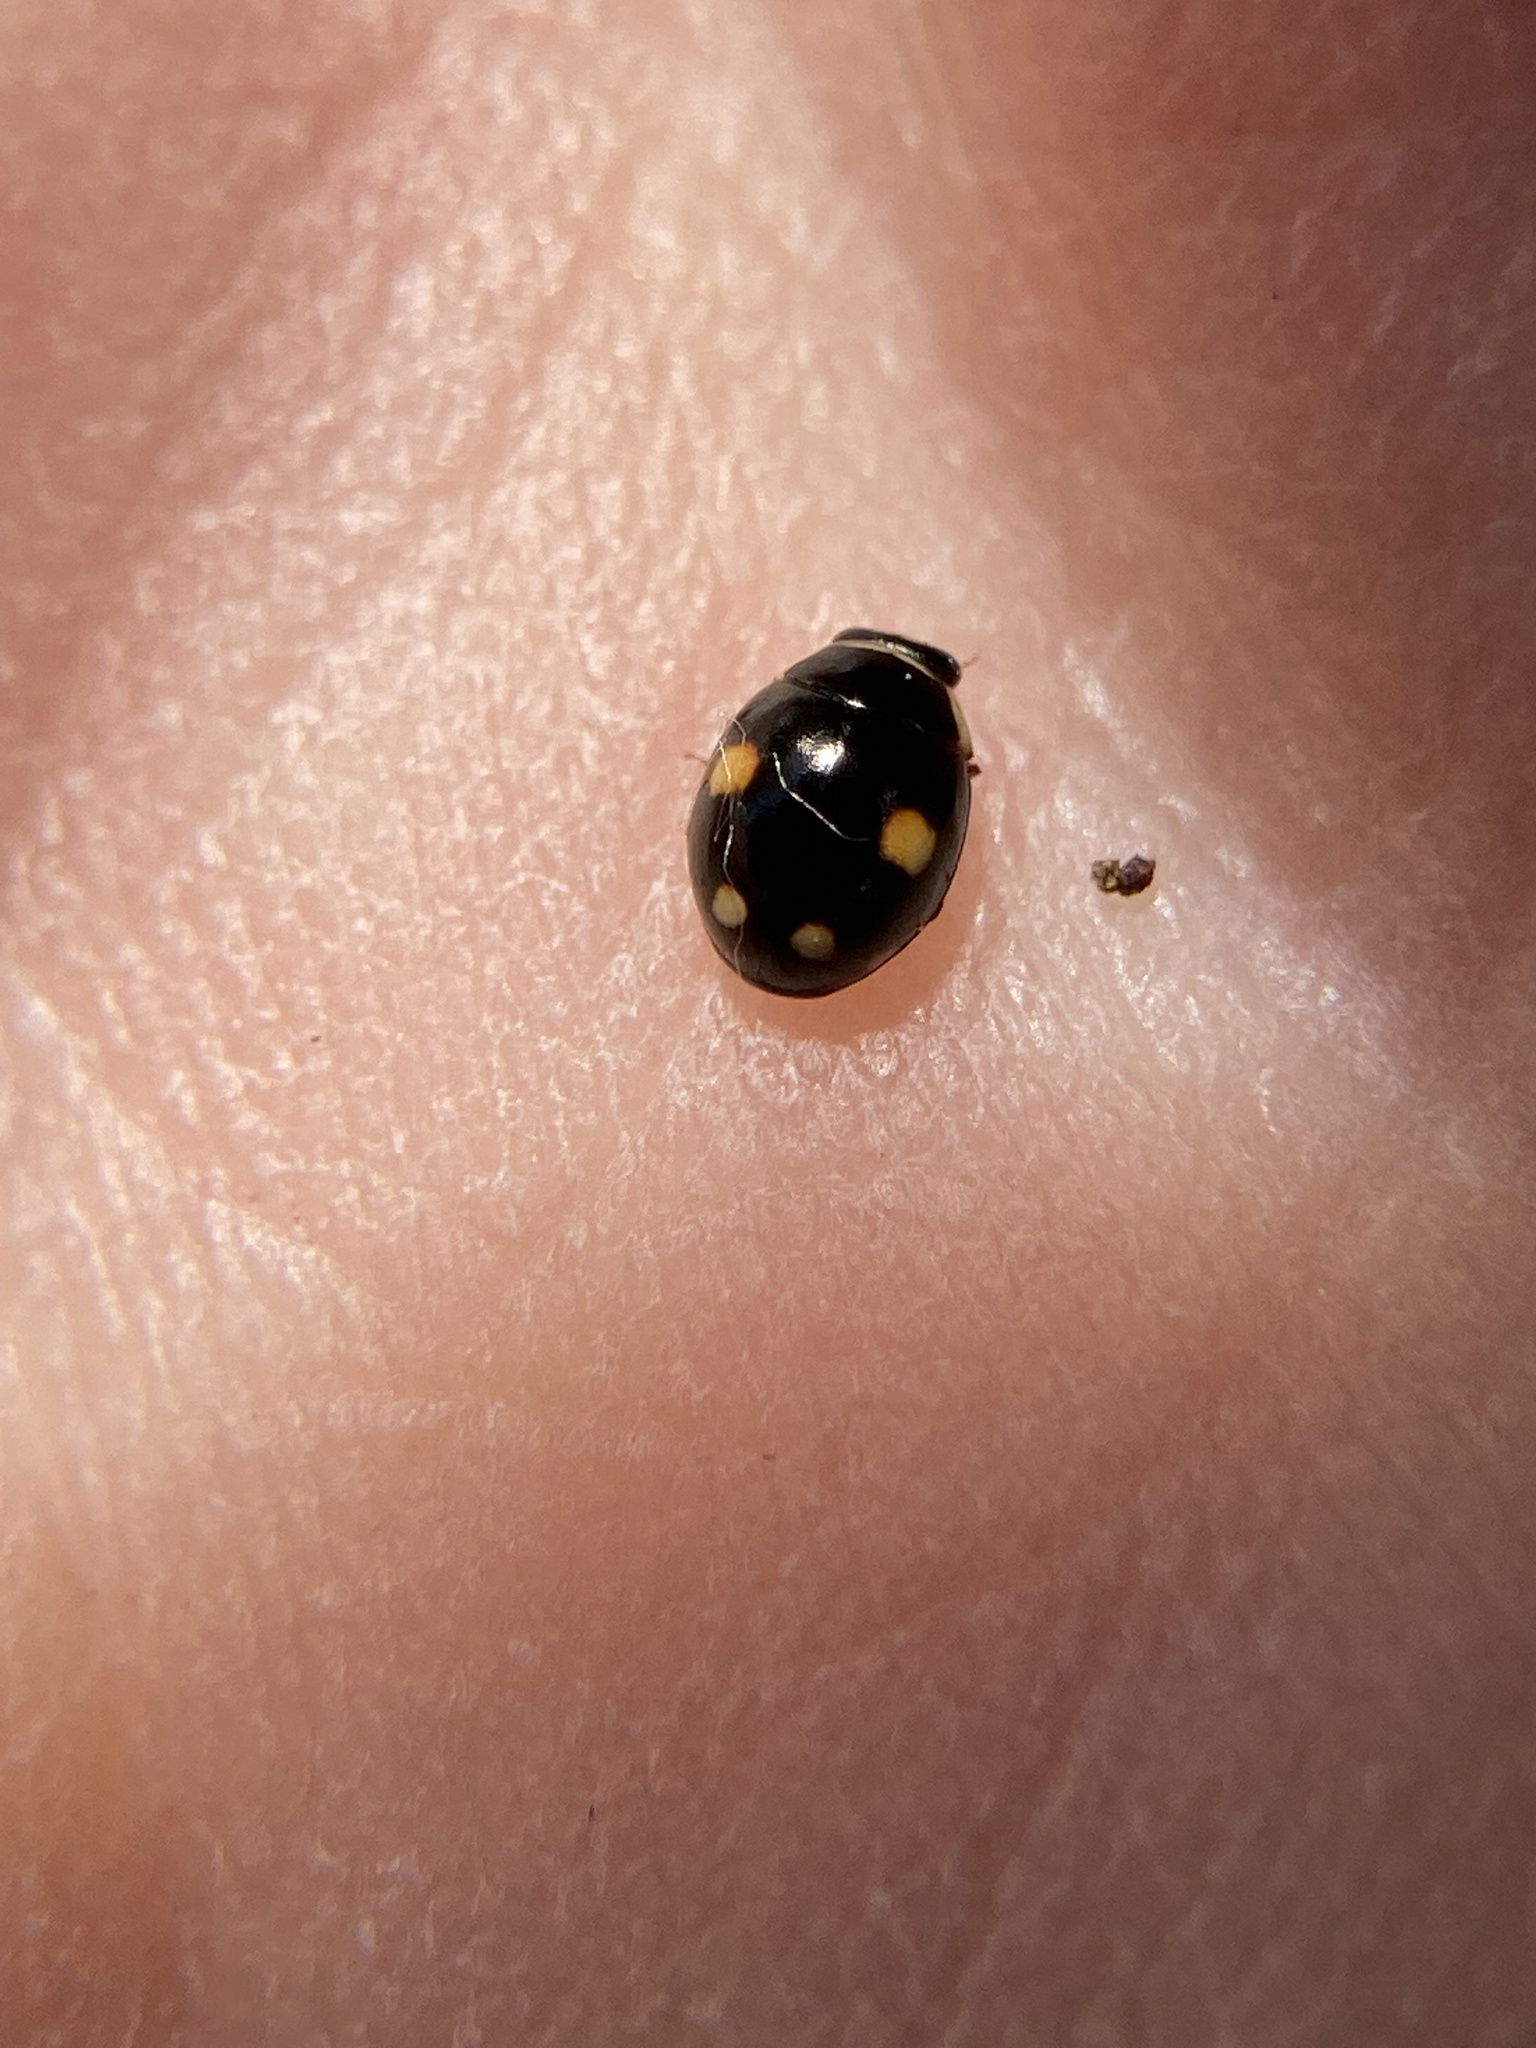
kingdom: Animalia
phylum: Arthropoda
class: Insecta
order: Coleoptera
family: Coccinellidae
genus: Hyperaspis
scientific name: Hyperaspis proba
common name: Esteemed sigil lady beetle
